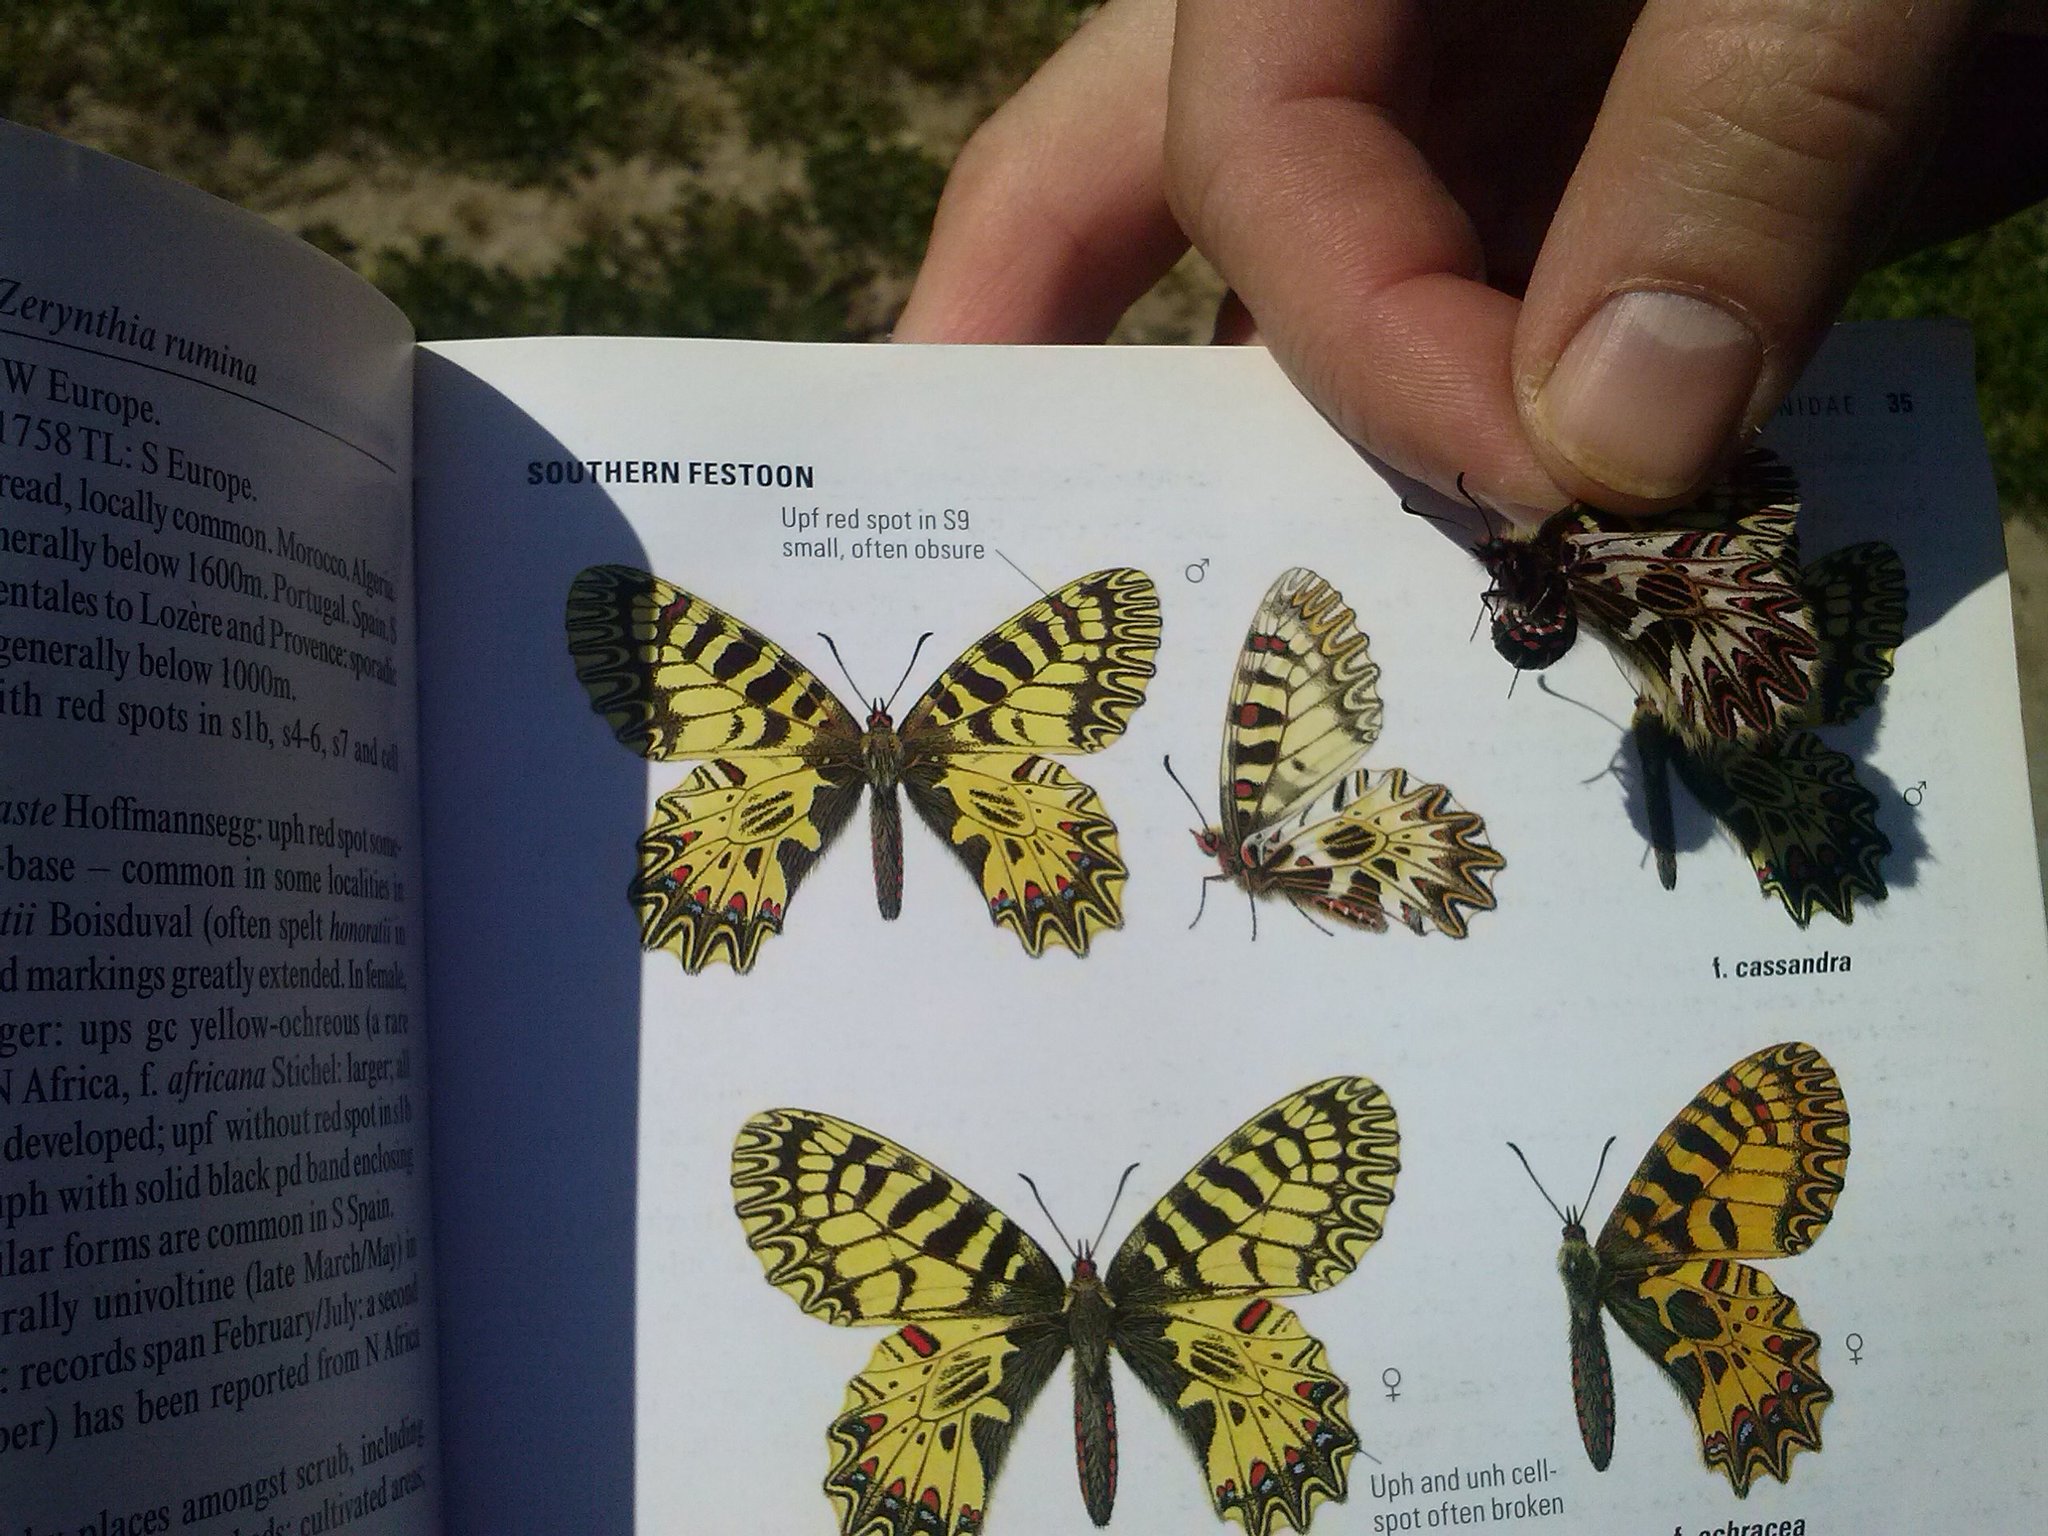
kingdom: Animalia
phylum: Arthropoda
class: Insecta
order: Lepidoptera
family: Papilionidae
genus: Zerynthia
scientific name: Zerynthia cassandra
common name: Italian festoon
